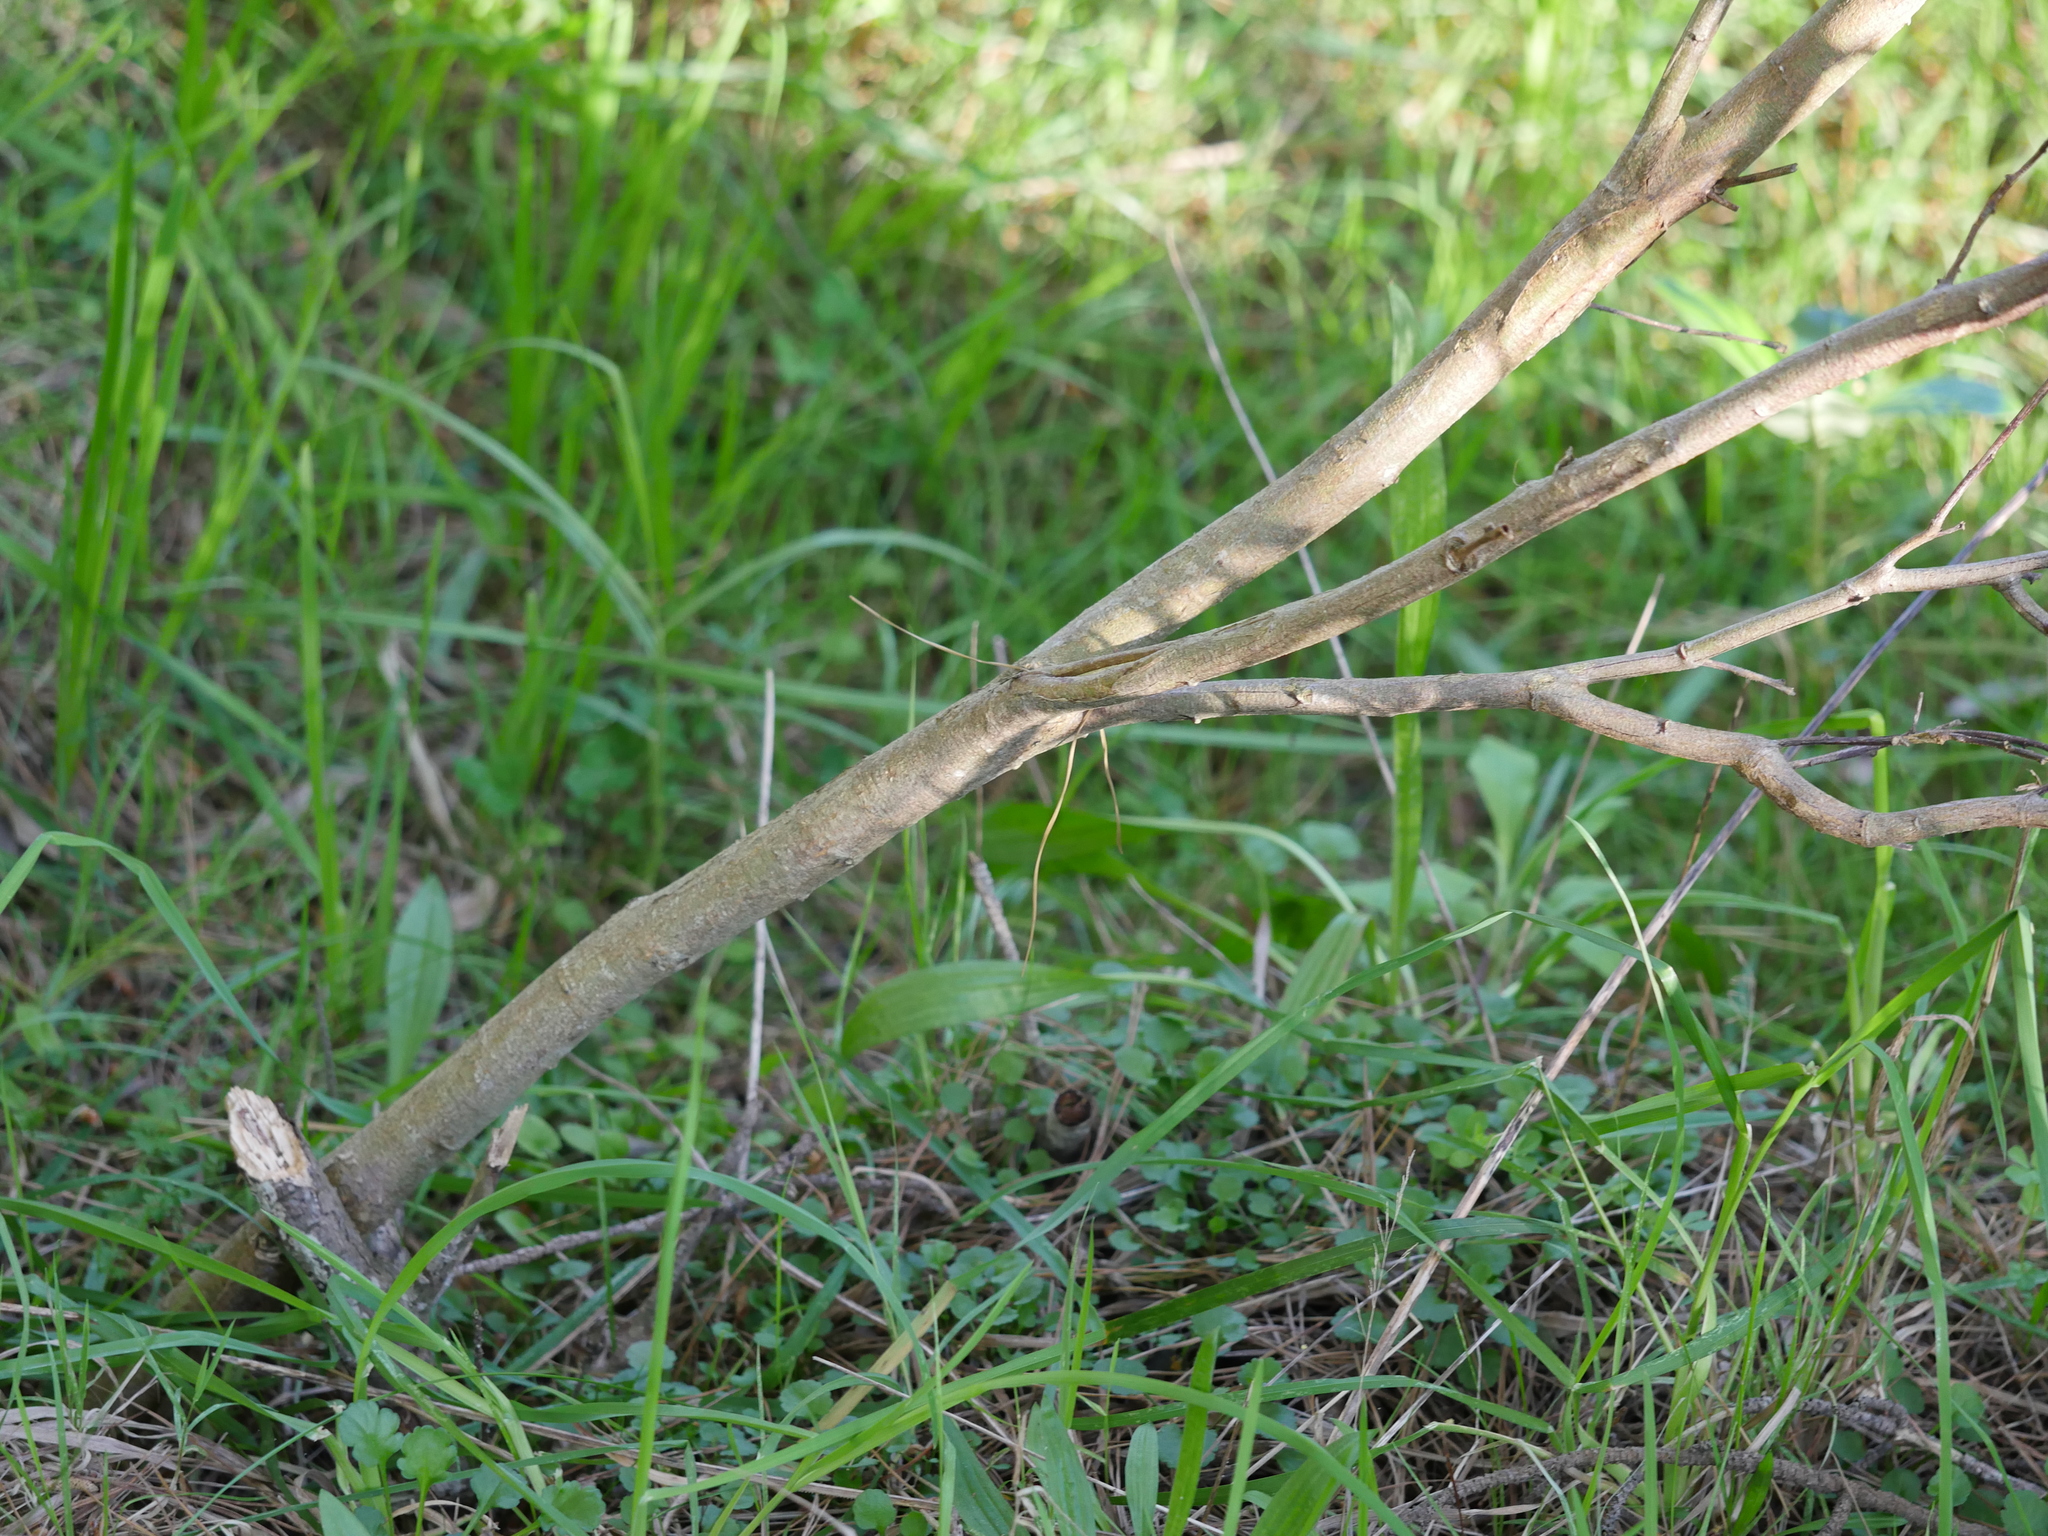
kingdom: Plantae
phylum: Tracheophyta
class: Magnoliopsida
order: Fabales
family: Fabaceae
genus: Acacia
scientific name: Acacia longifolia
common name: Sydney golden wattle
